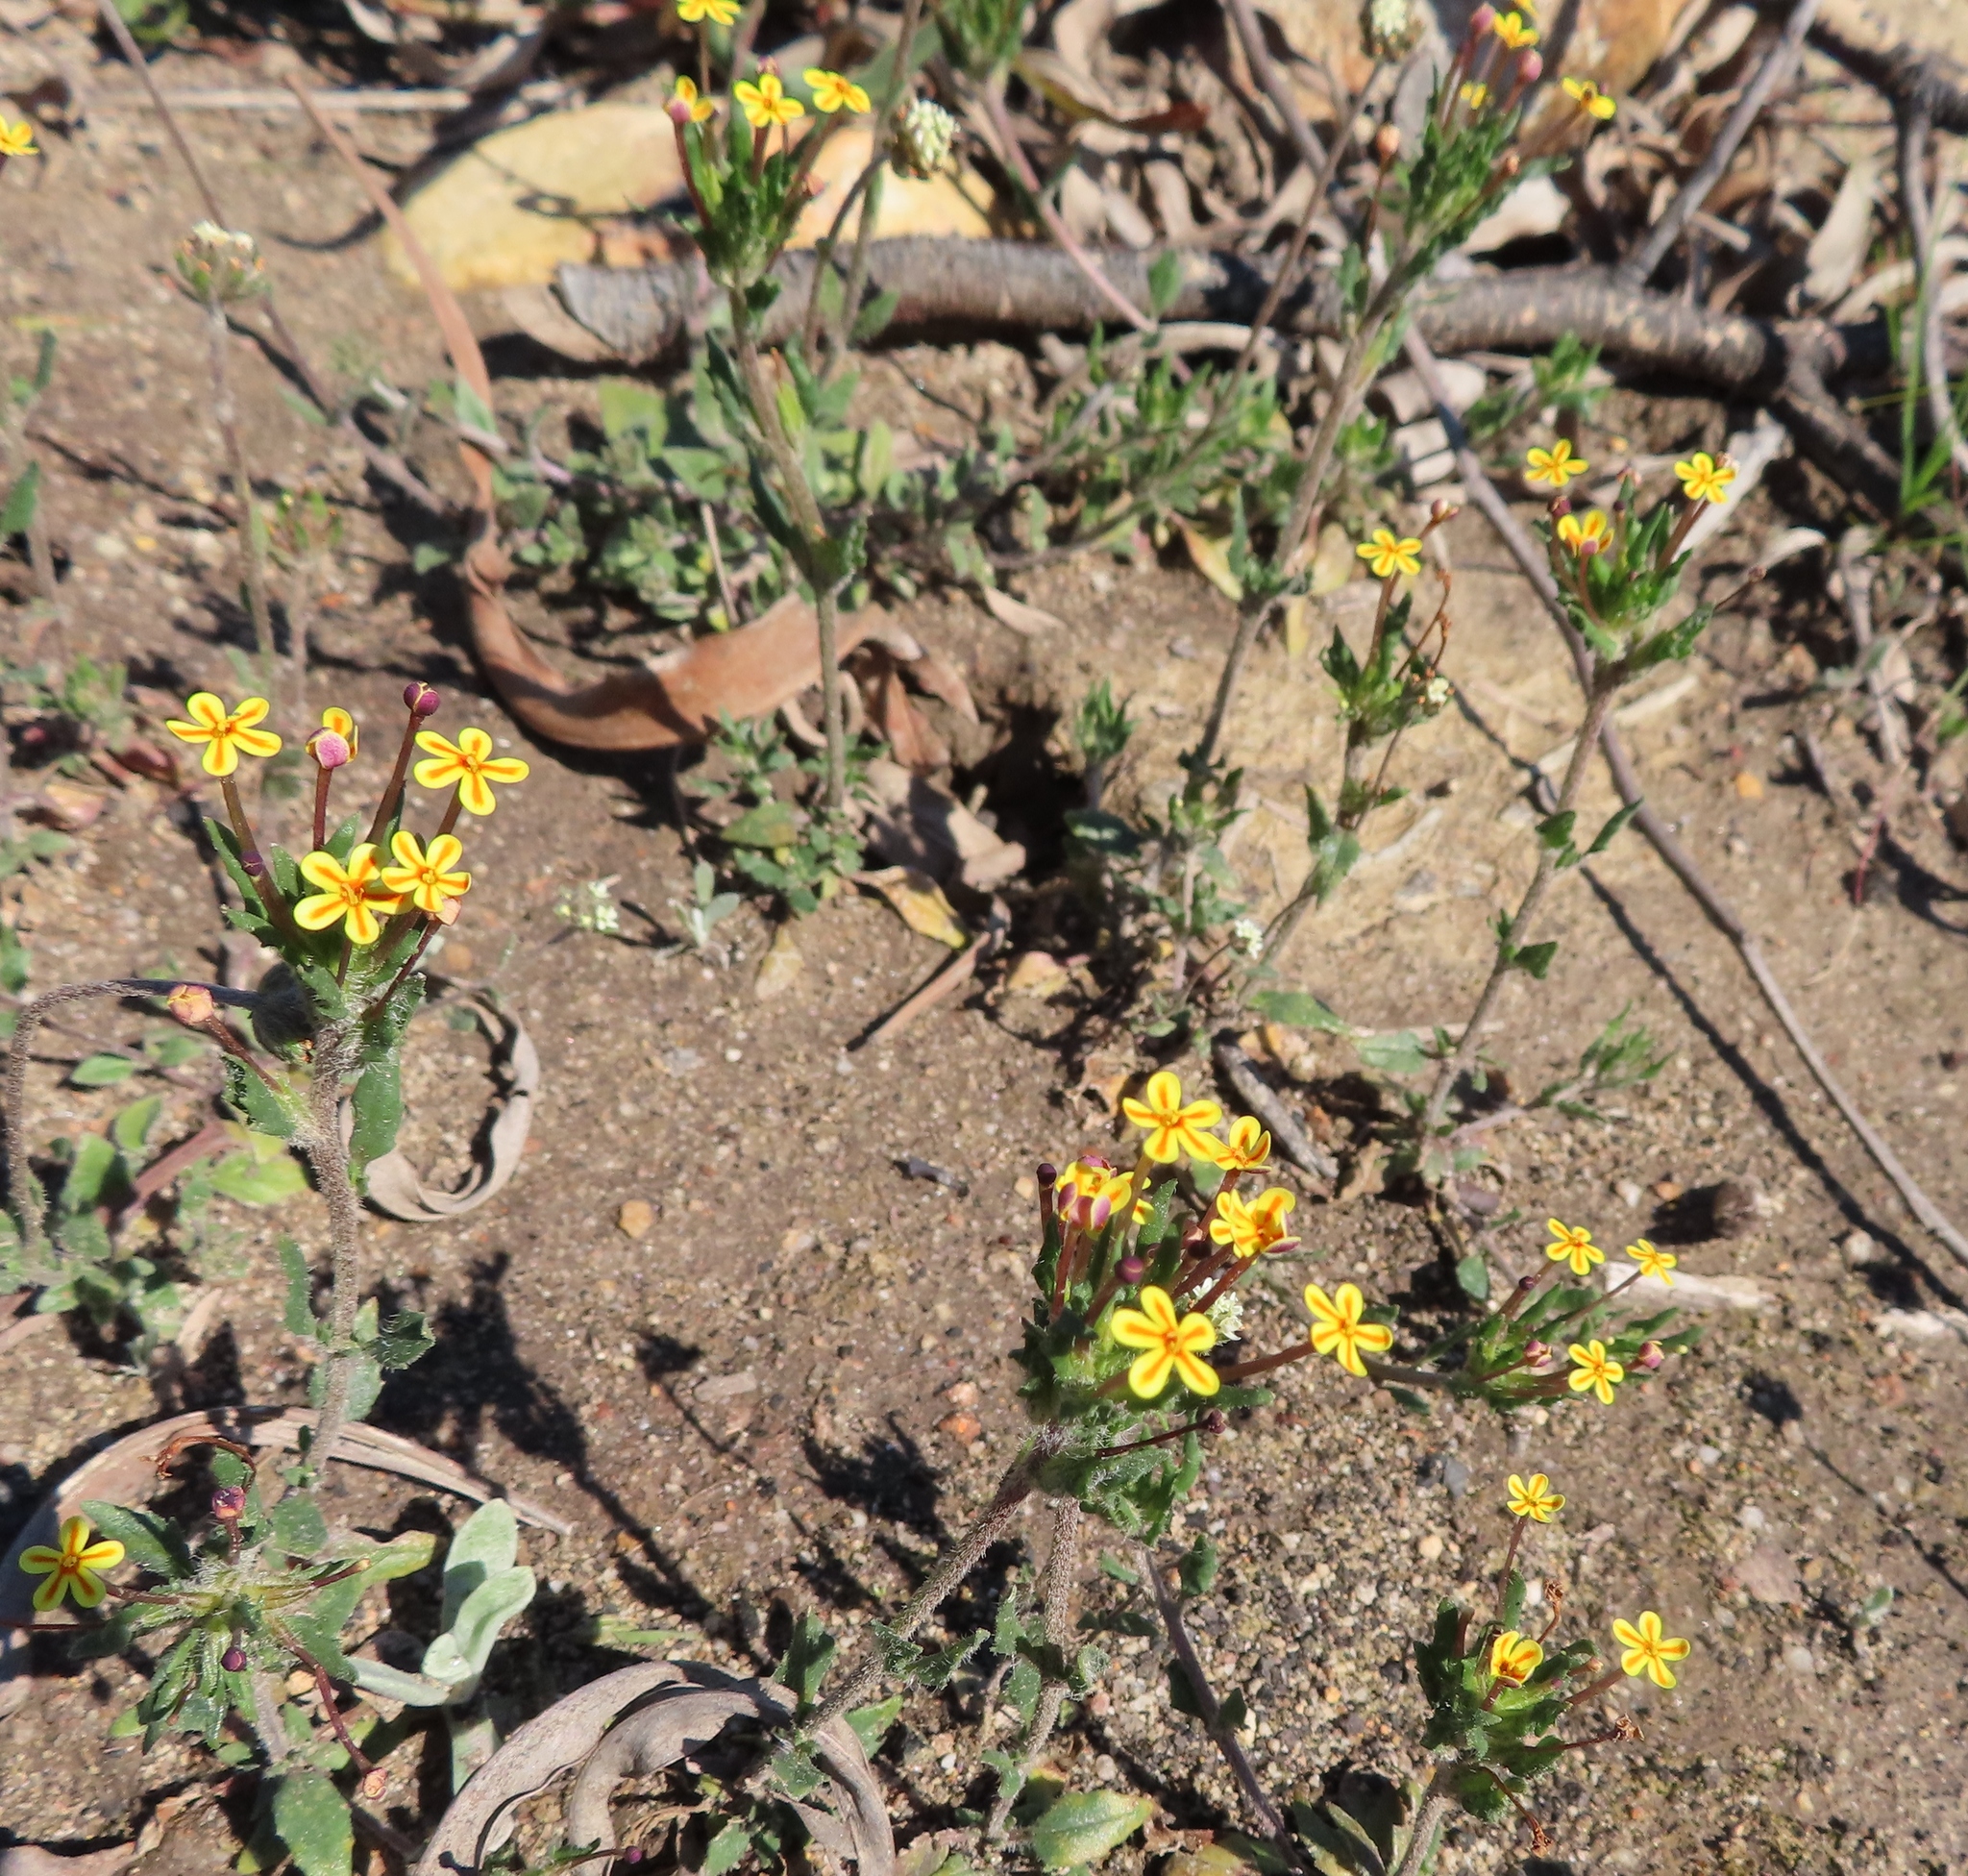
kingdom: Plantae
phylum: Tracheophyta
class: Magnoliopsida
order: Lamiales
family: Scrophulariaceae
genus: Zaluzianskya
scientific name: Zaluzianskya divaricata
